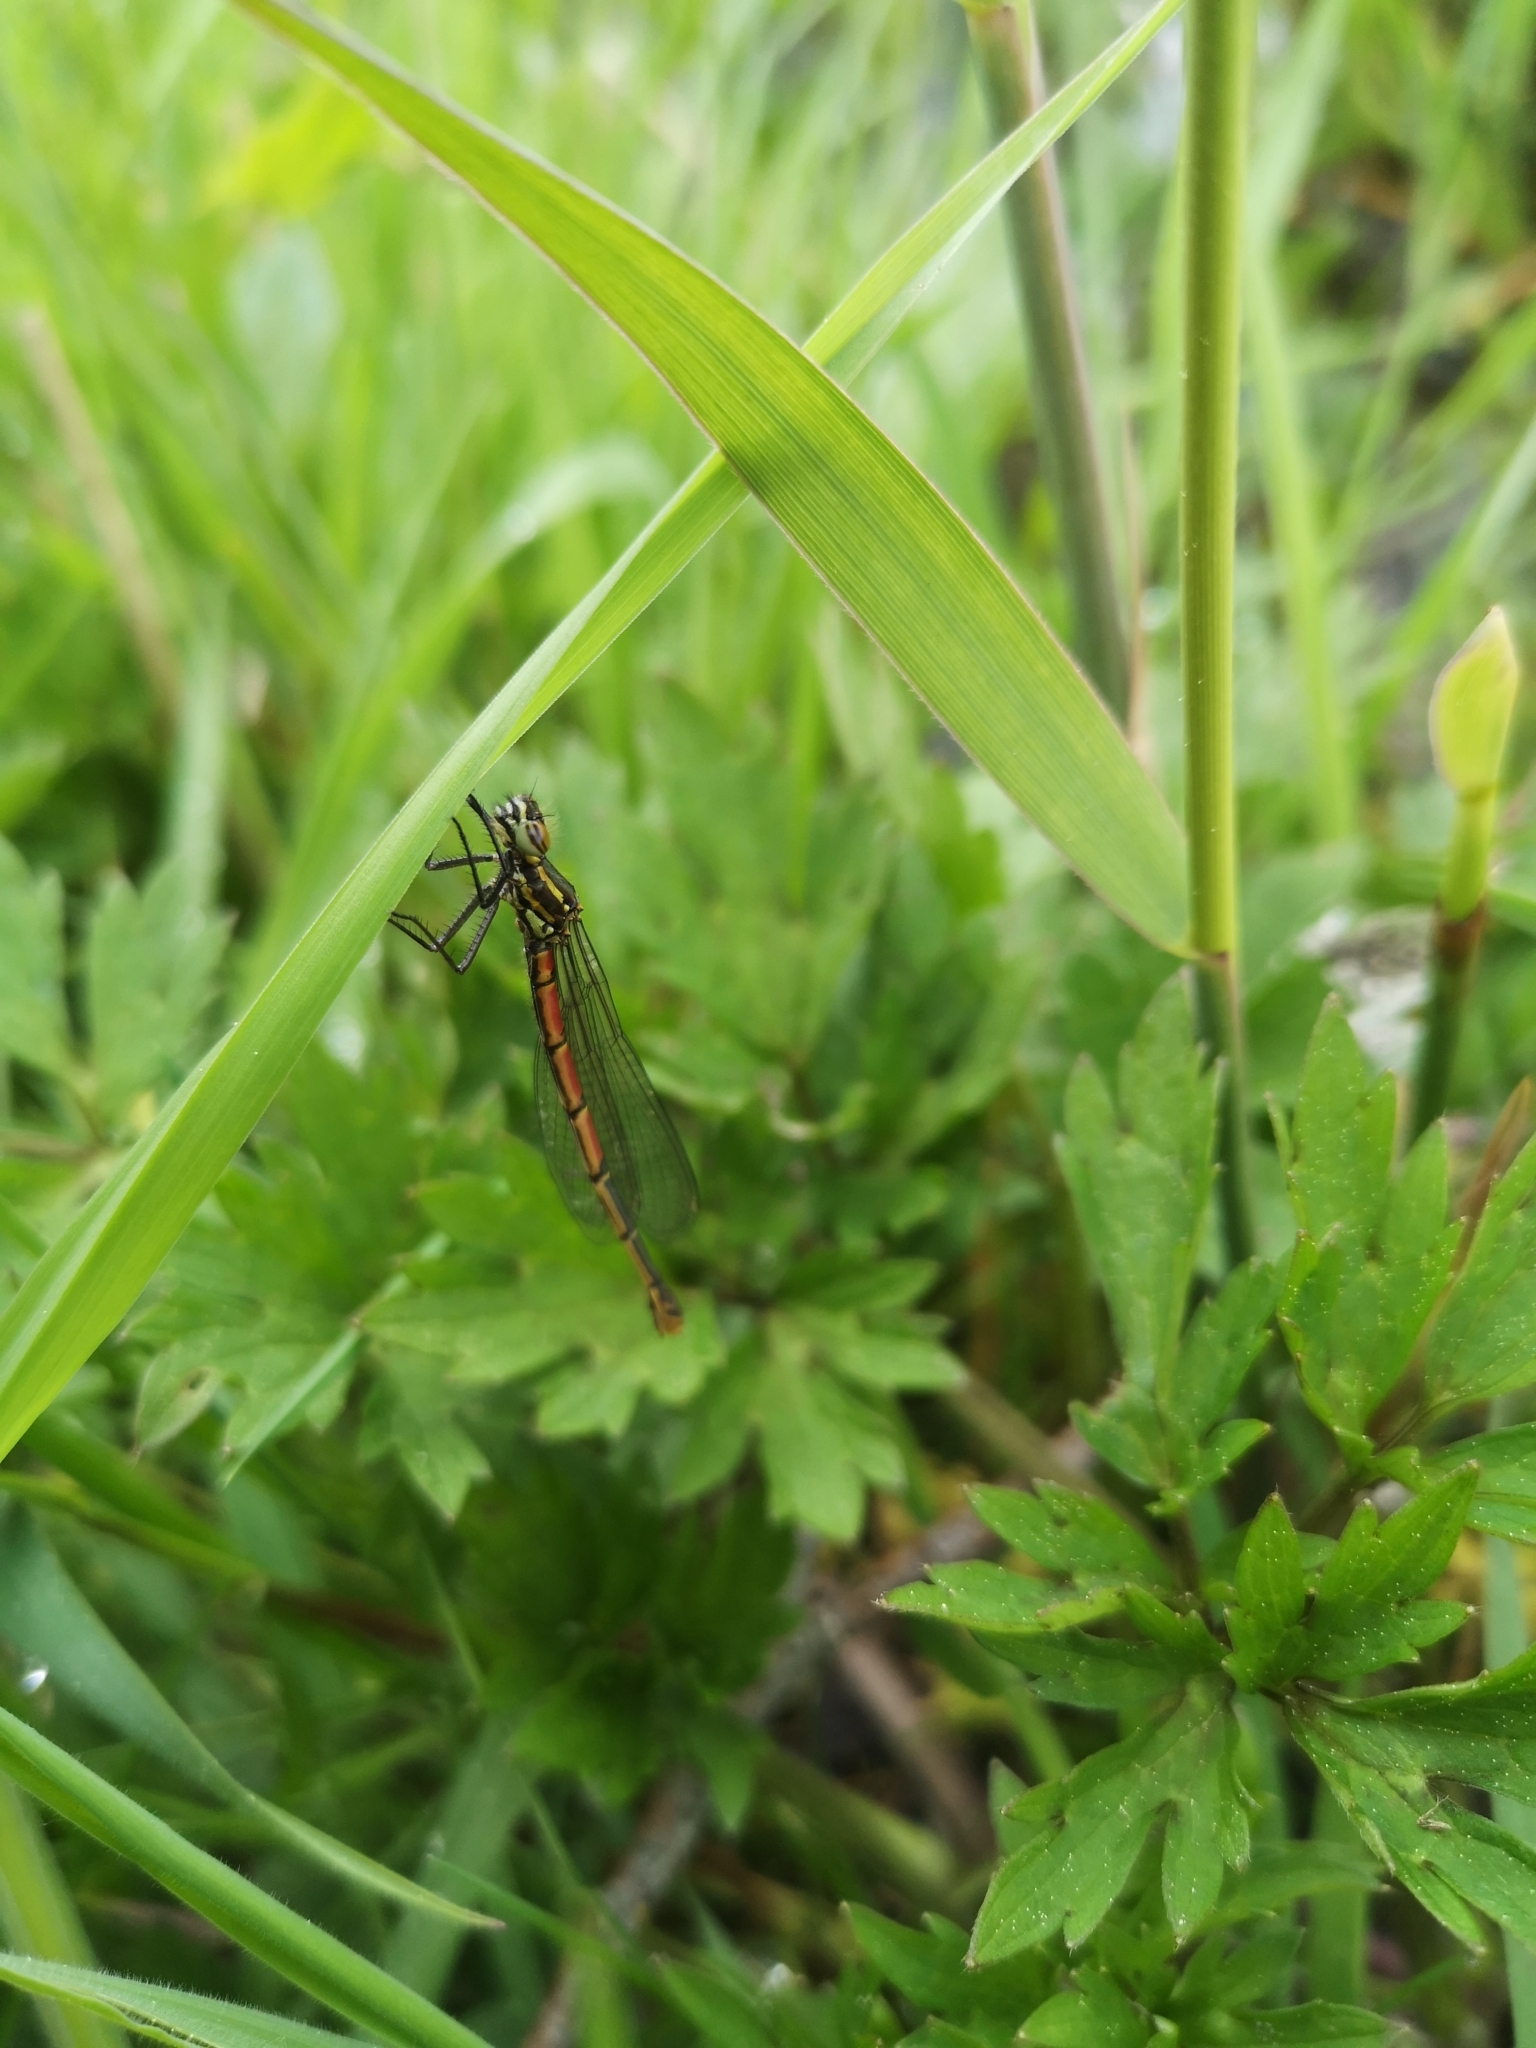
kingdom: Animalia
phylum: Arthropoda
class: Insecta
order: Odonata
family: Coenagrionidae
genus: Pyrrhosoma
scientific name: Pyrrhosoma nymphula
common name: Large red damsel
